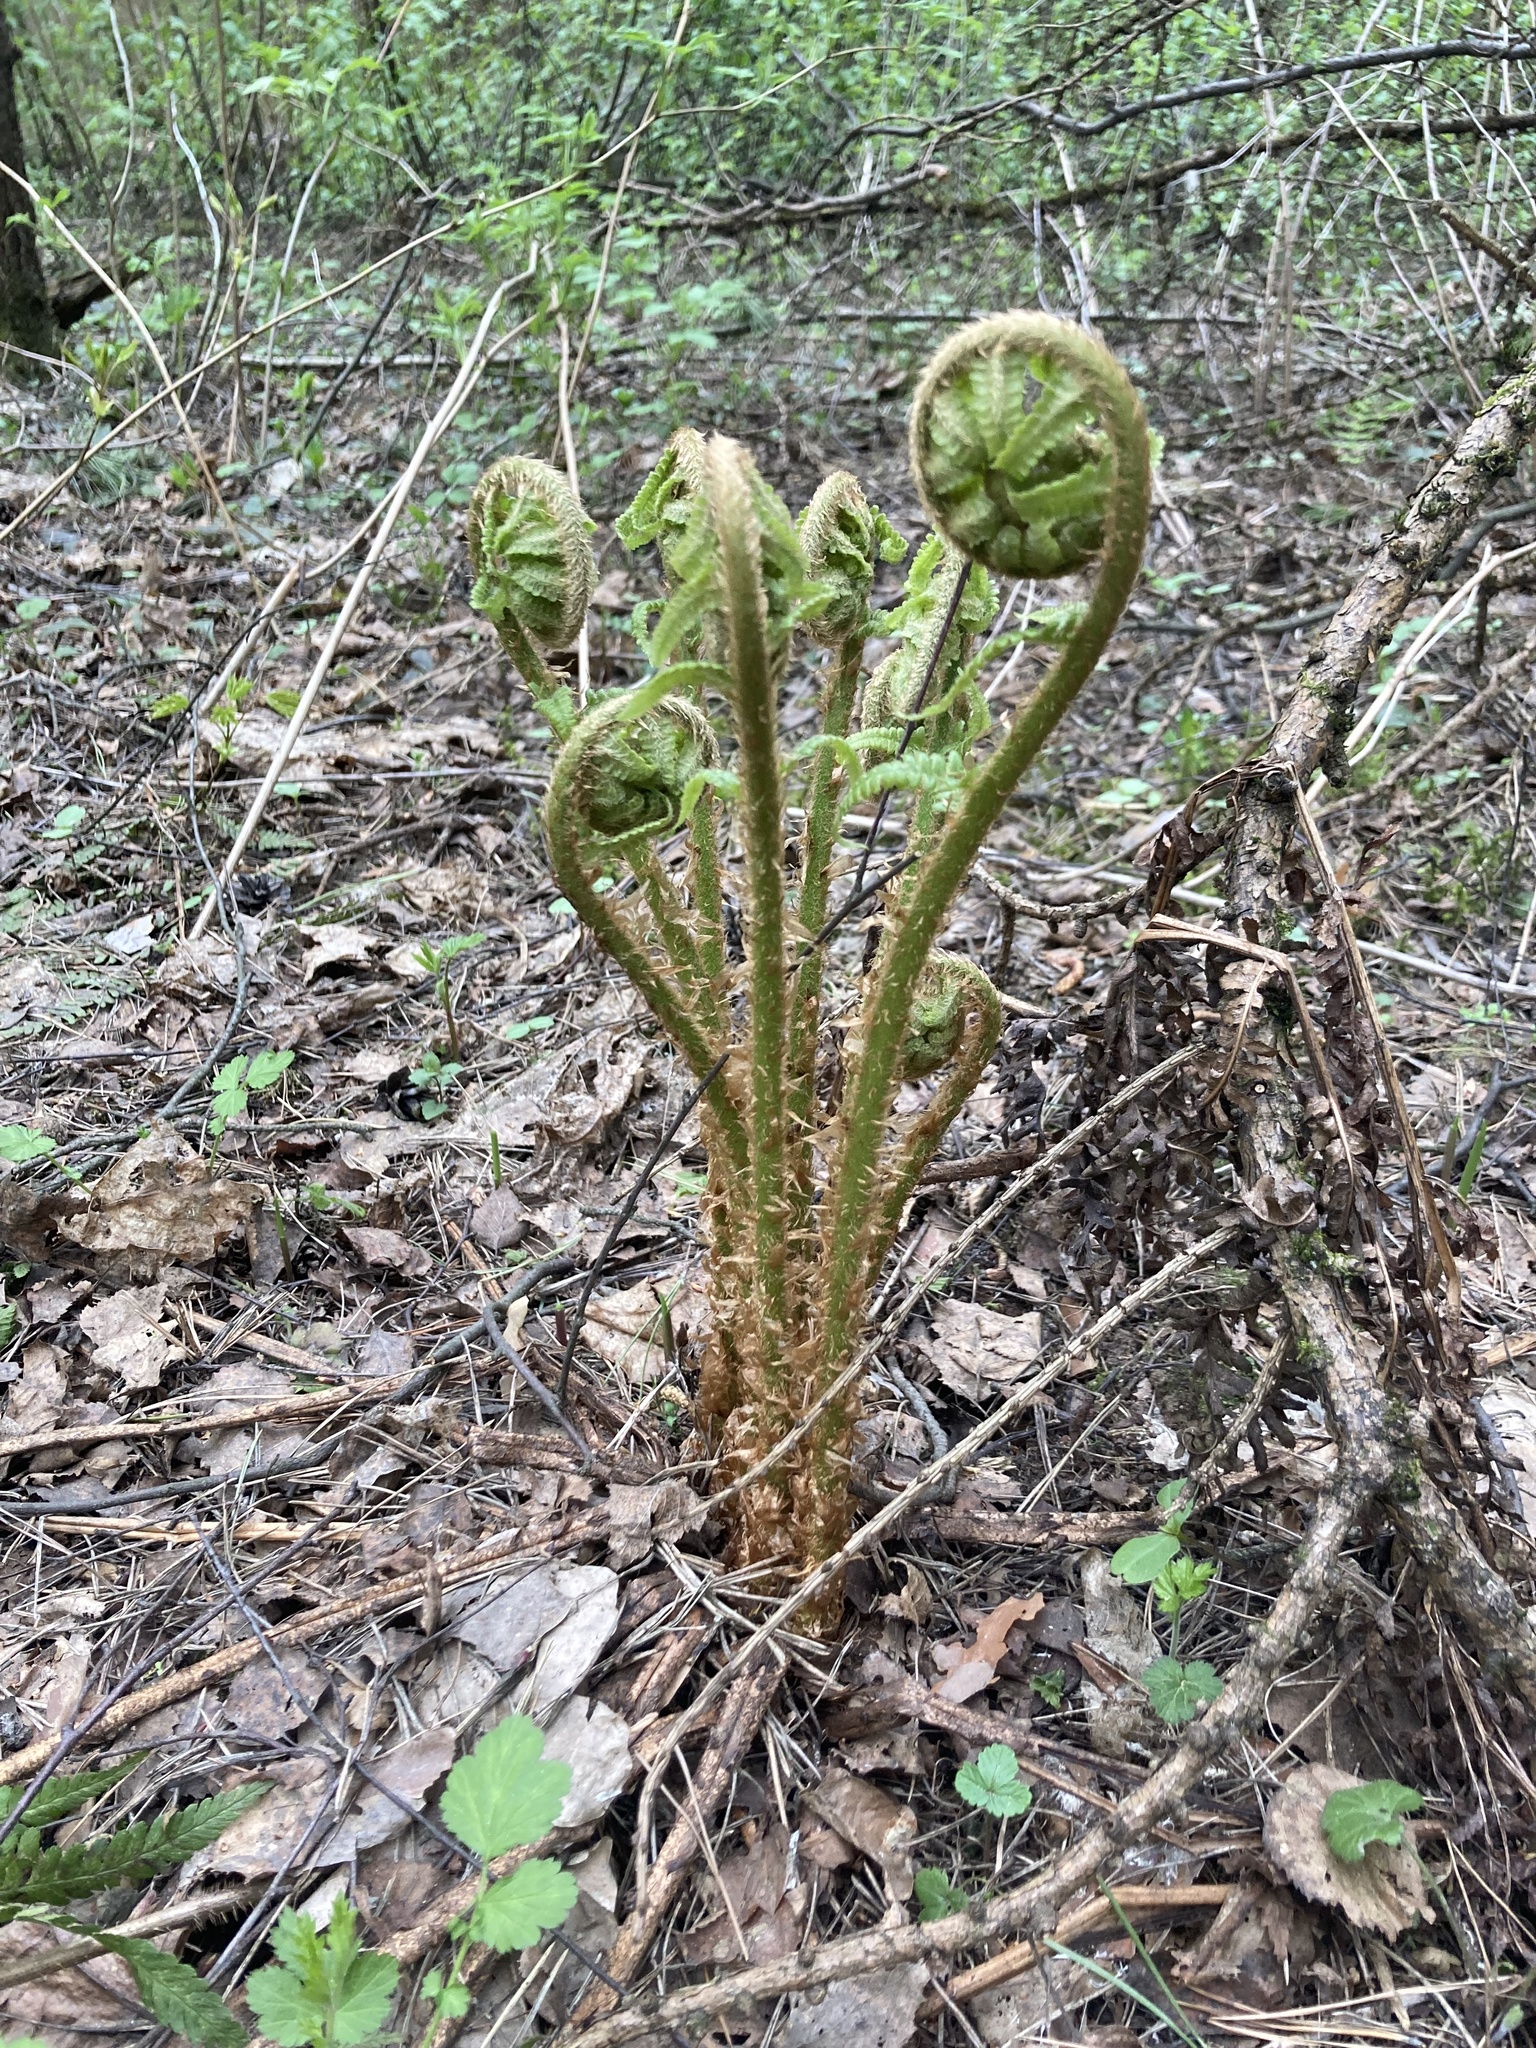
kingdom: Plantae
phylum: Tracheophyta
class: Polypodiopsida
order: Polypodiales
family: Dryopteridaceae
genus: Dryopteris
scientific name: Dryopteris filix-mas
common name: Male fern
